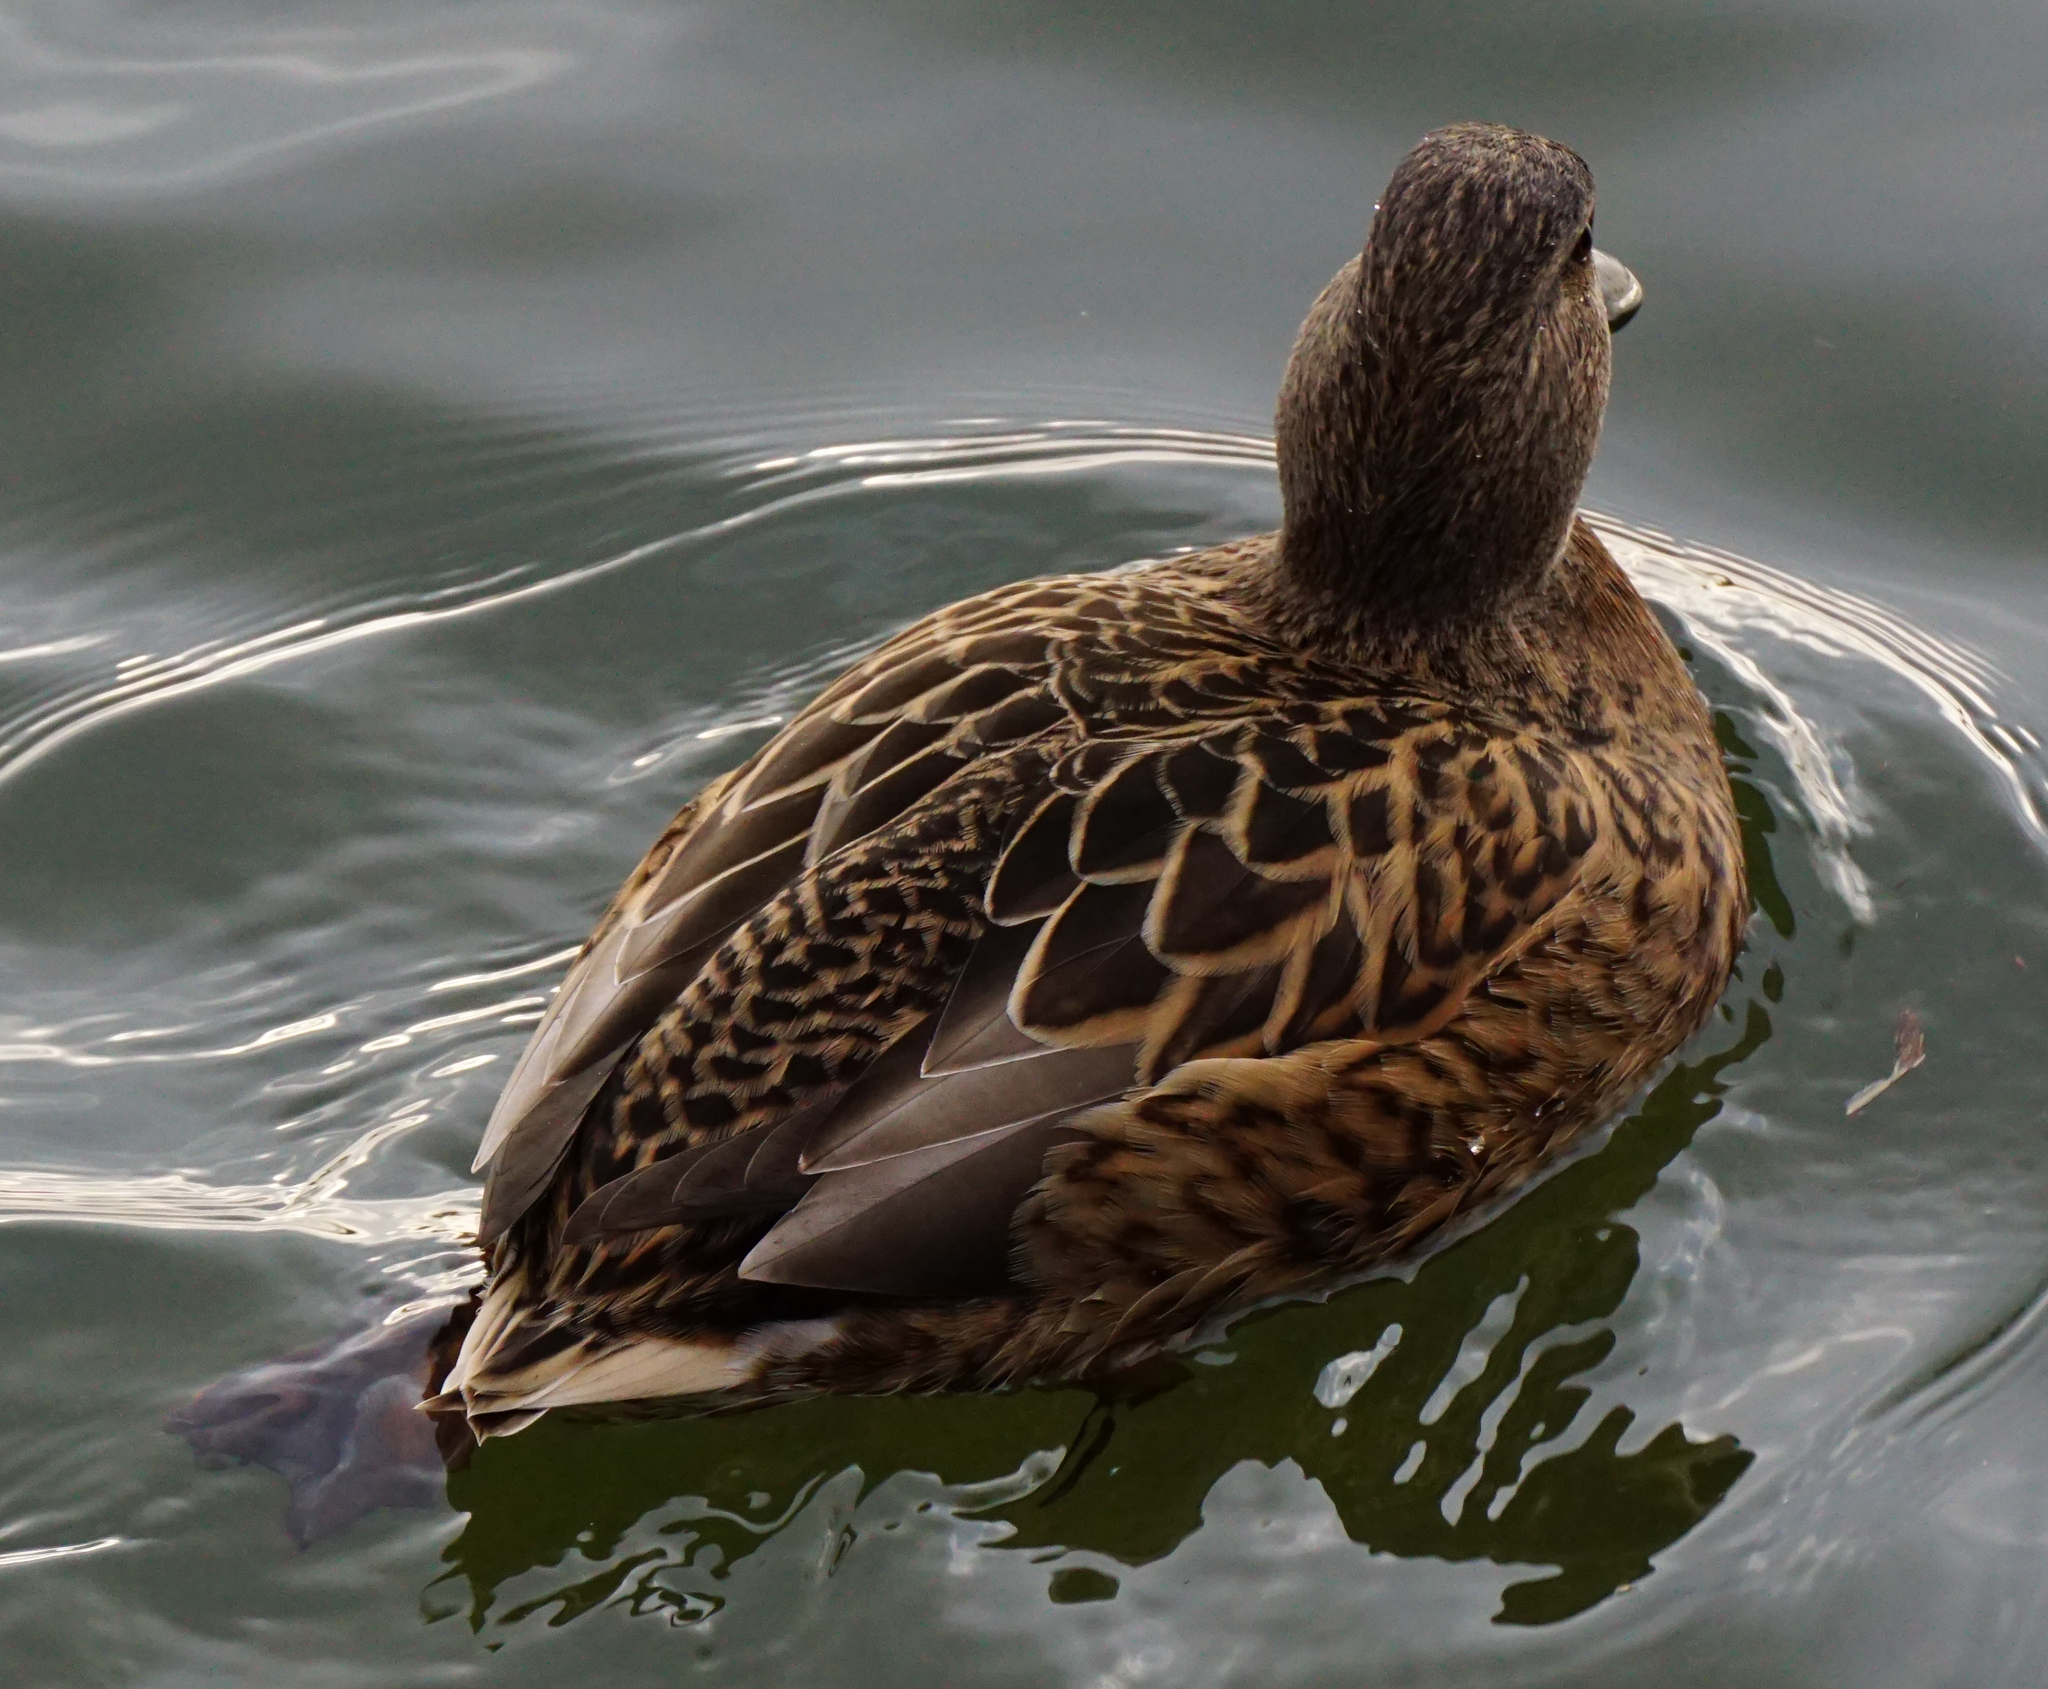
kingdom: Animalia
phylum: Chordata
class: Aves
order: Anseriformes
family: Anatidae
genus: Anas
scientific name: Anas platyrhynchos
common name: Mallard
